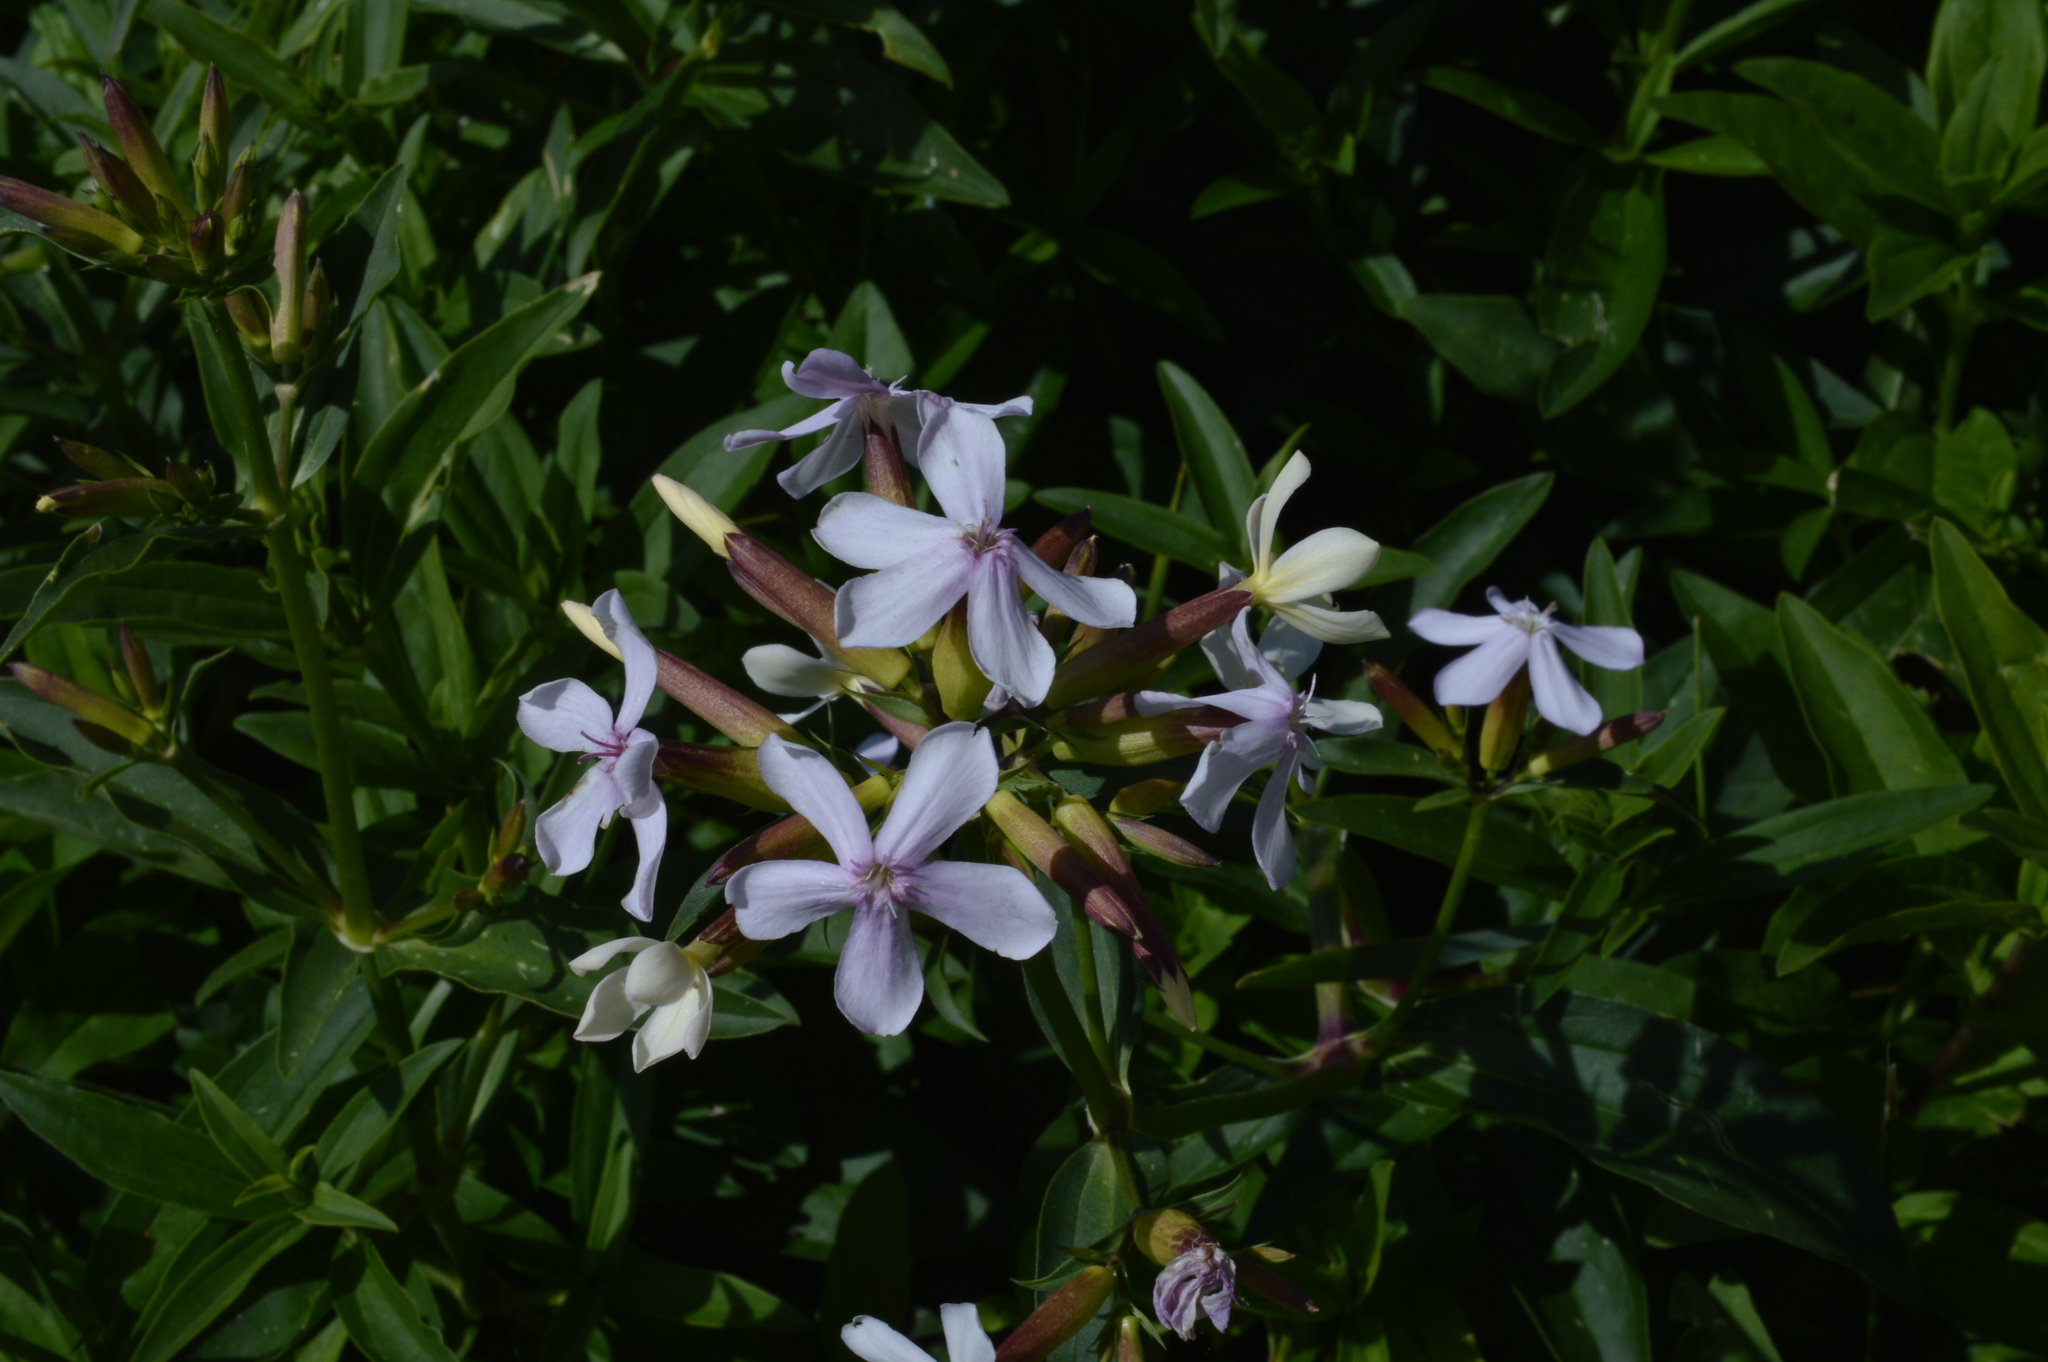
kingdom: Plantae
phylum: Tracheophyta
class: Magnoliopsida
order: Caryophyllales
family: Caryophyllaceae
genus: Saponaria
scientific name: Saponaria officinalis
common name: Soapwort
